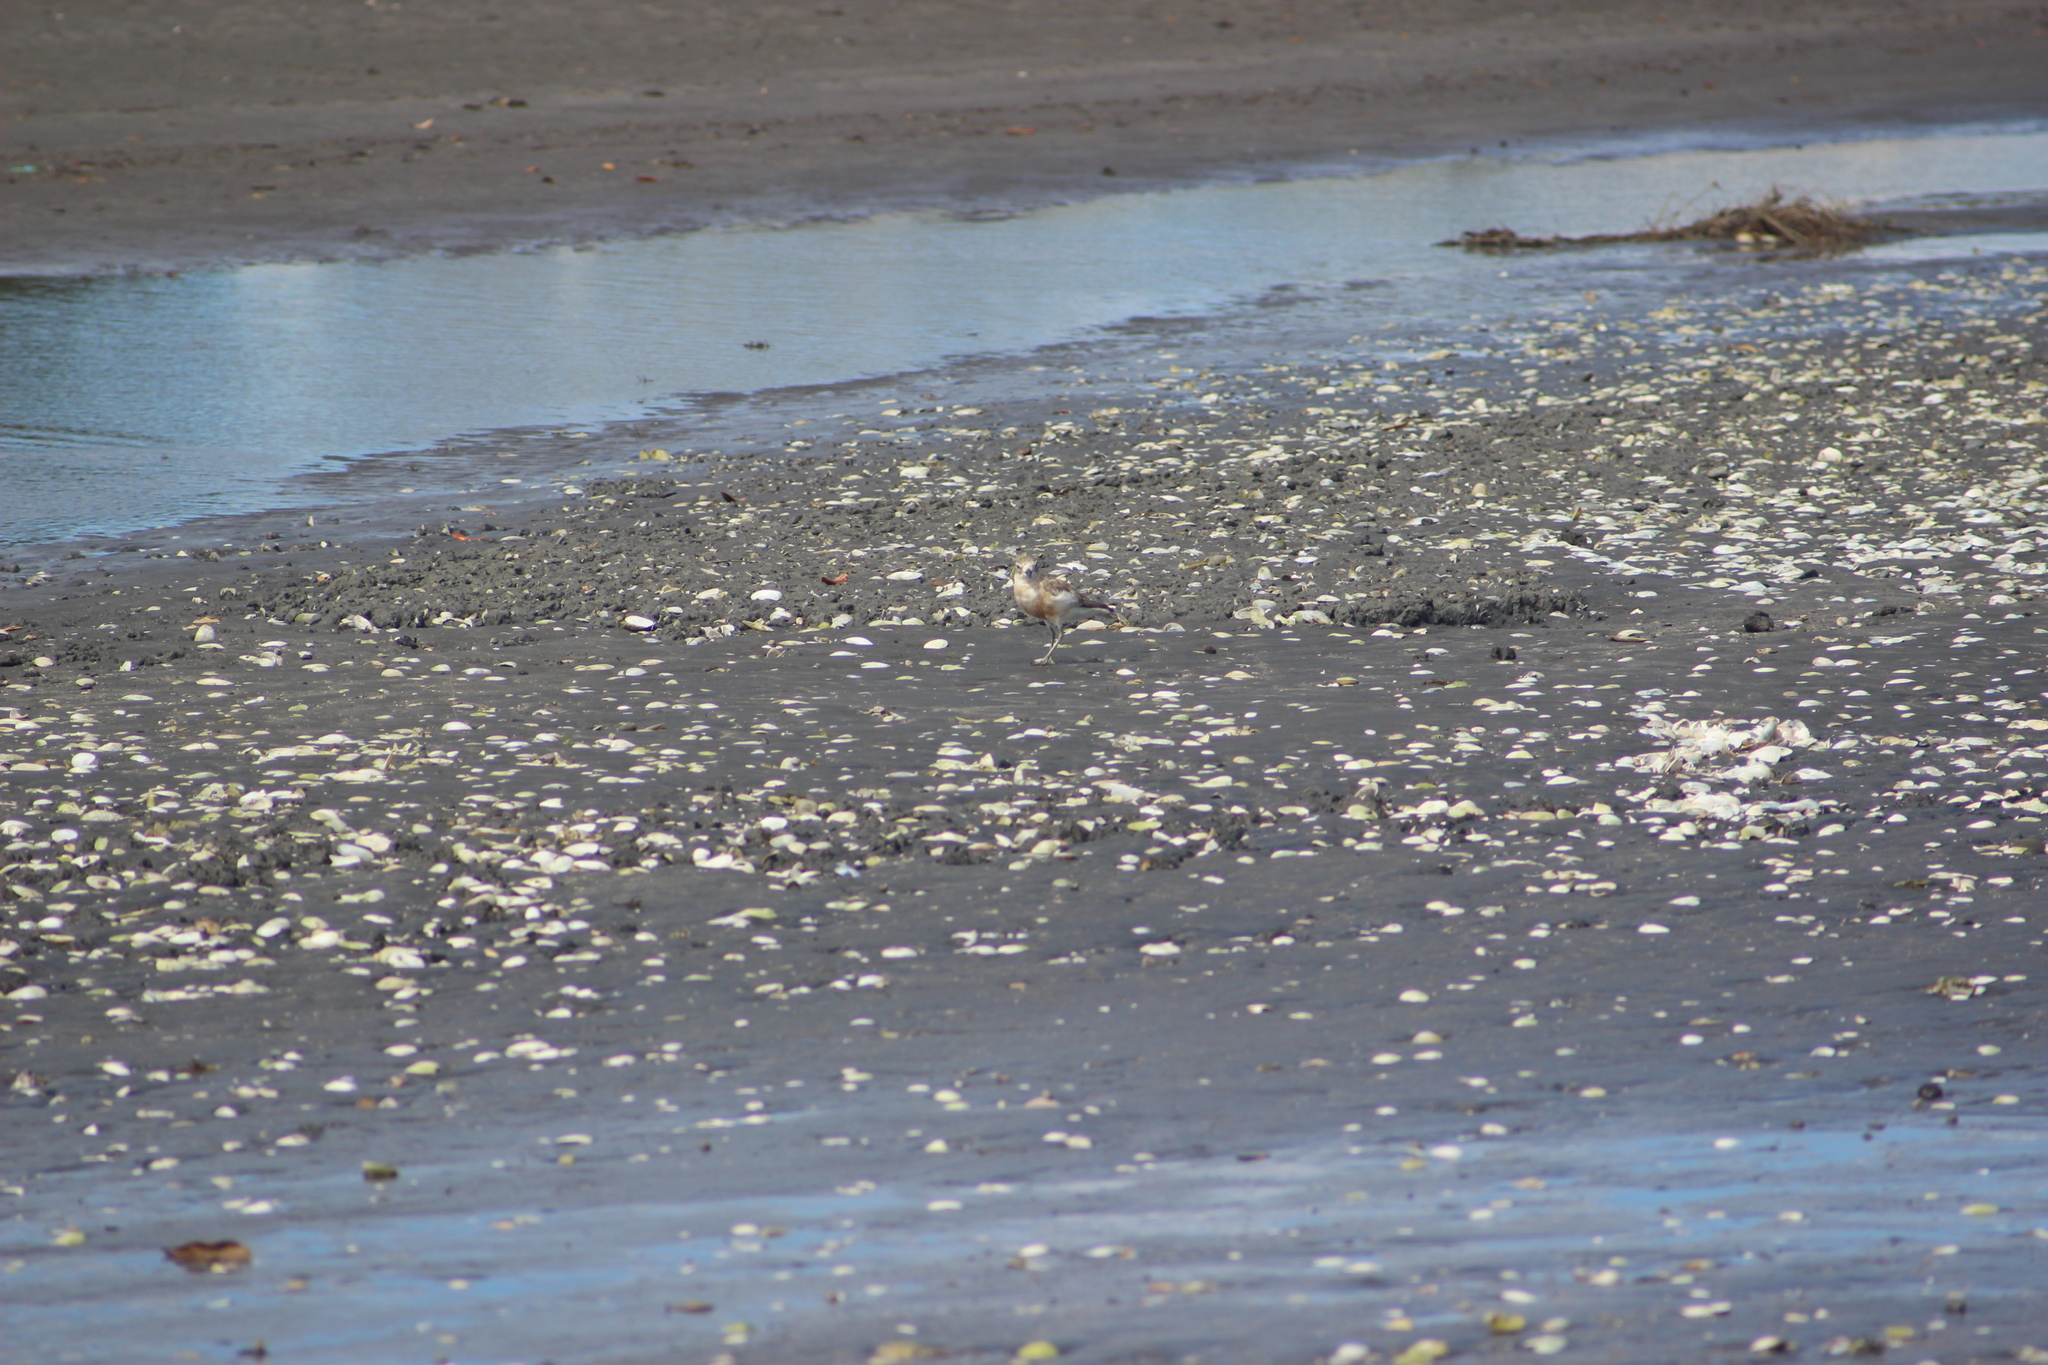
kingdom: Animalia
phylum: Chordata
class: Aves
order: Charadriiformes
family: Charadriidae
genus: Anarhynchus
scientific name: Anarhynchus
